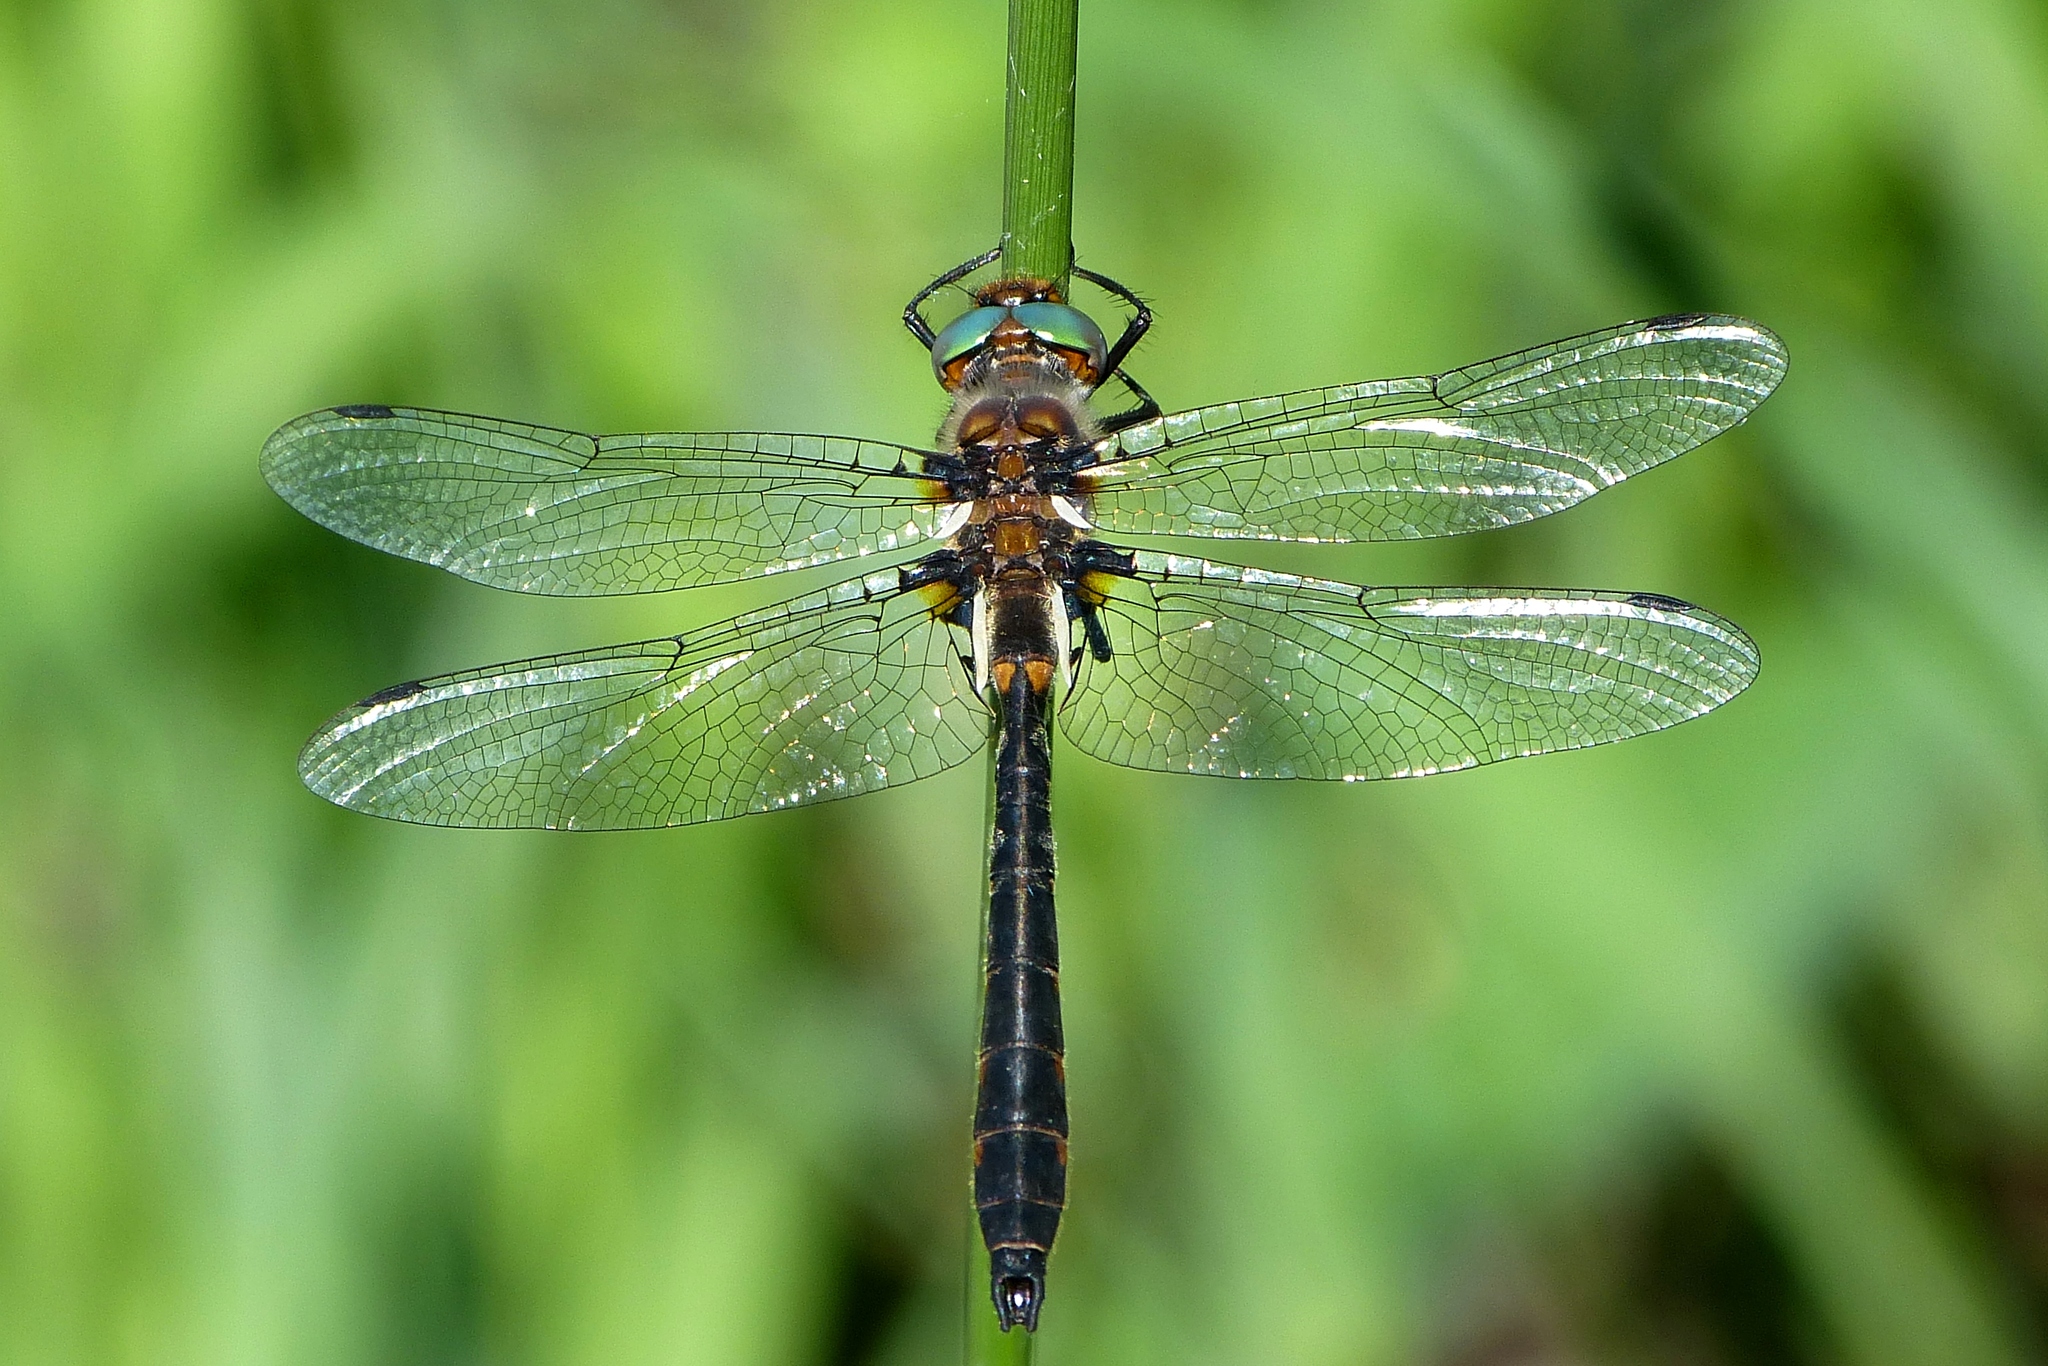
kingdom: Animalia
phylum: Arthropoda
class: Insecta
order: Odonata
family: Corduliidae
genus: Helocordulia
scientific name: Helocordulia uhleri
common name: Uhler's sundragon
